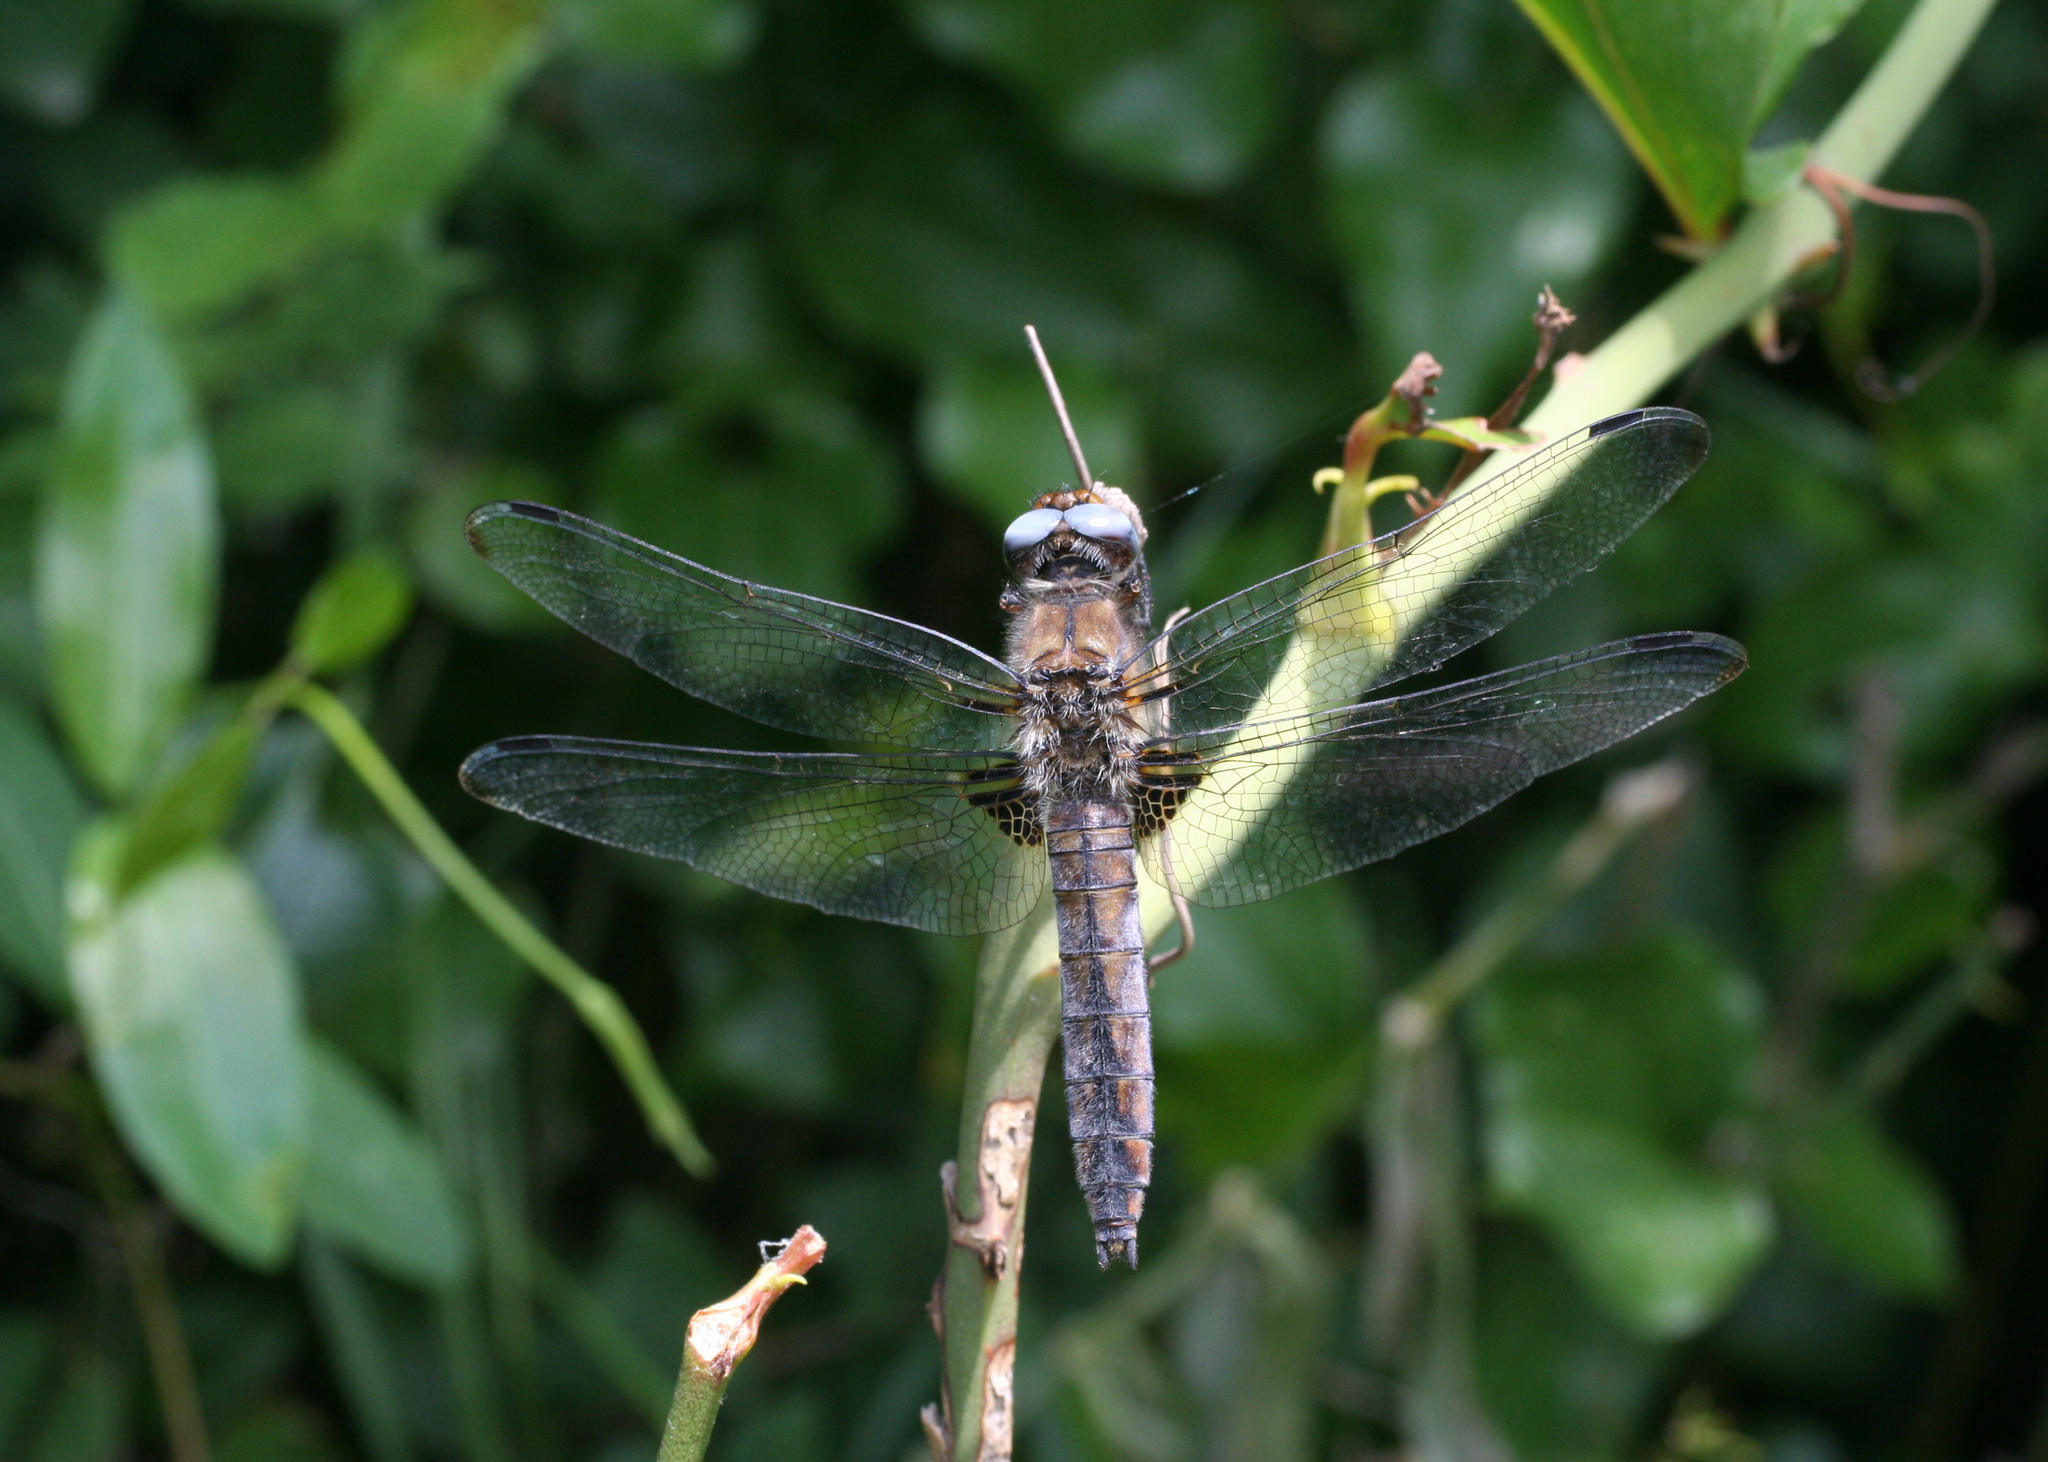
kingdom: Animalia
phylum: Arthropoda
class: Insecta
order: Odonata
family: Libellulidae
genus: Libellula
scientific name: Libellula fulva
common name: Blue chaser
